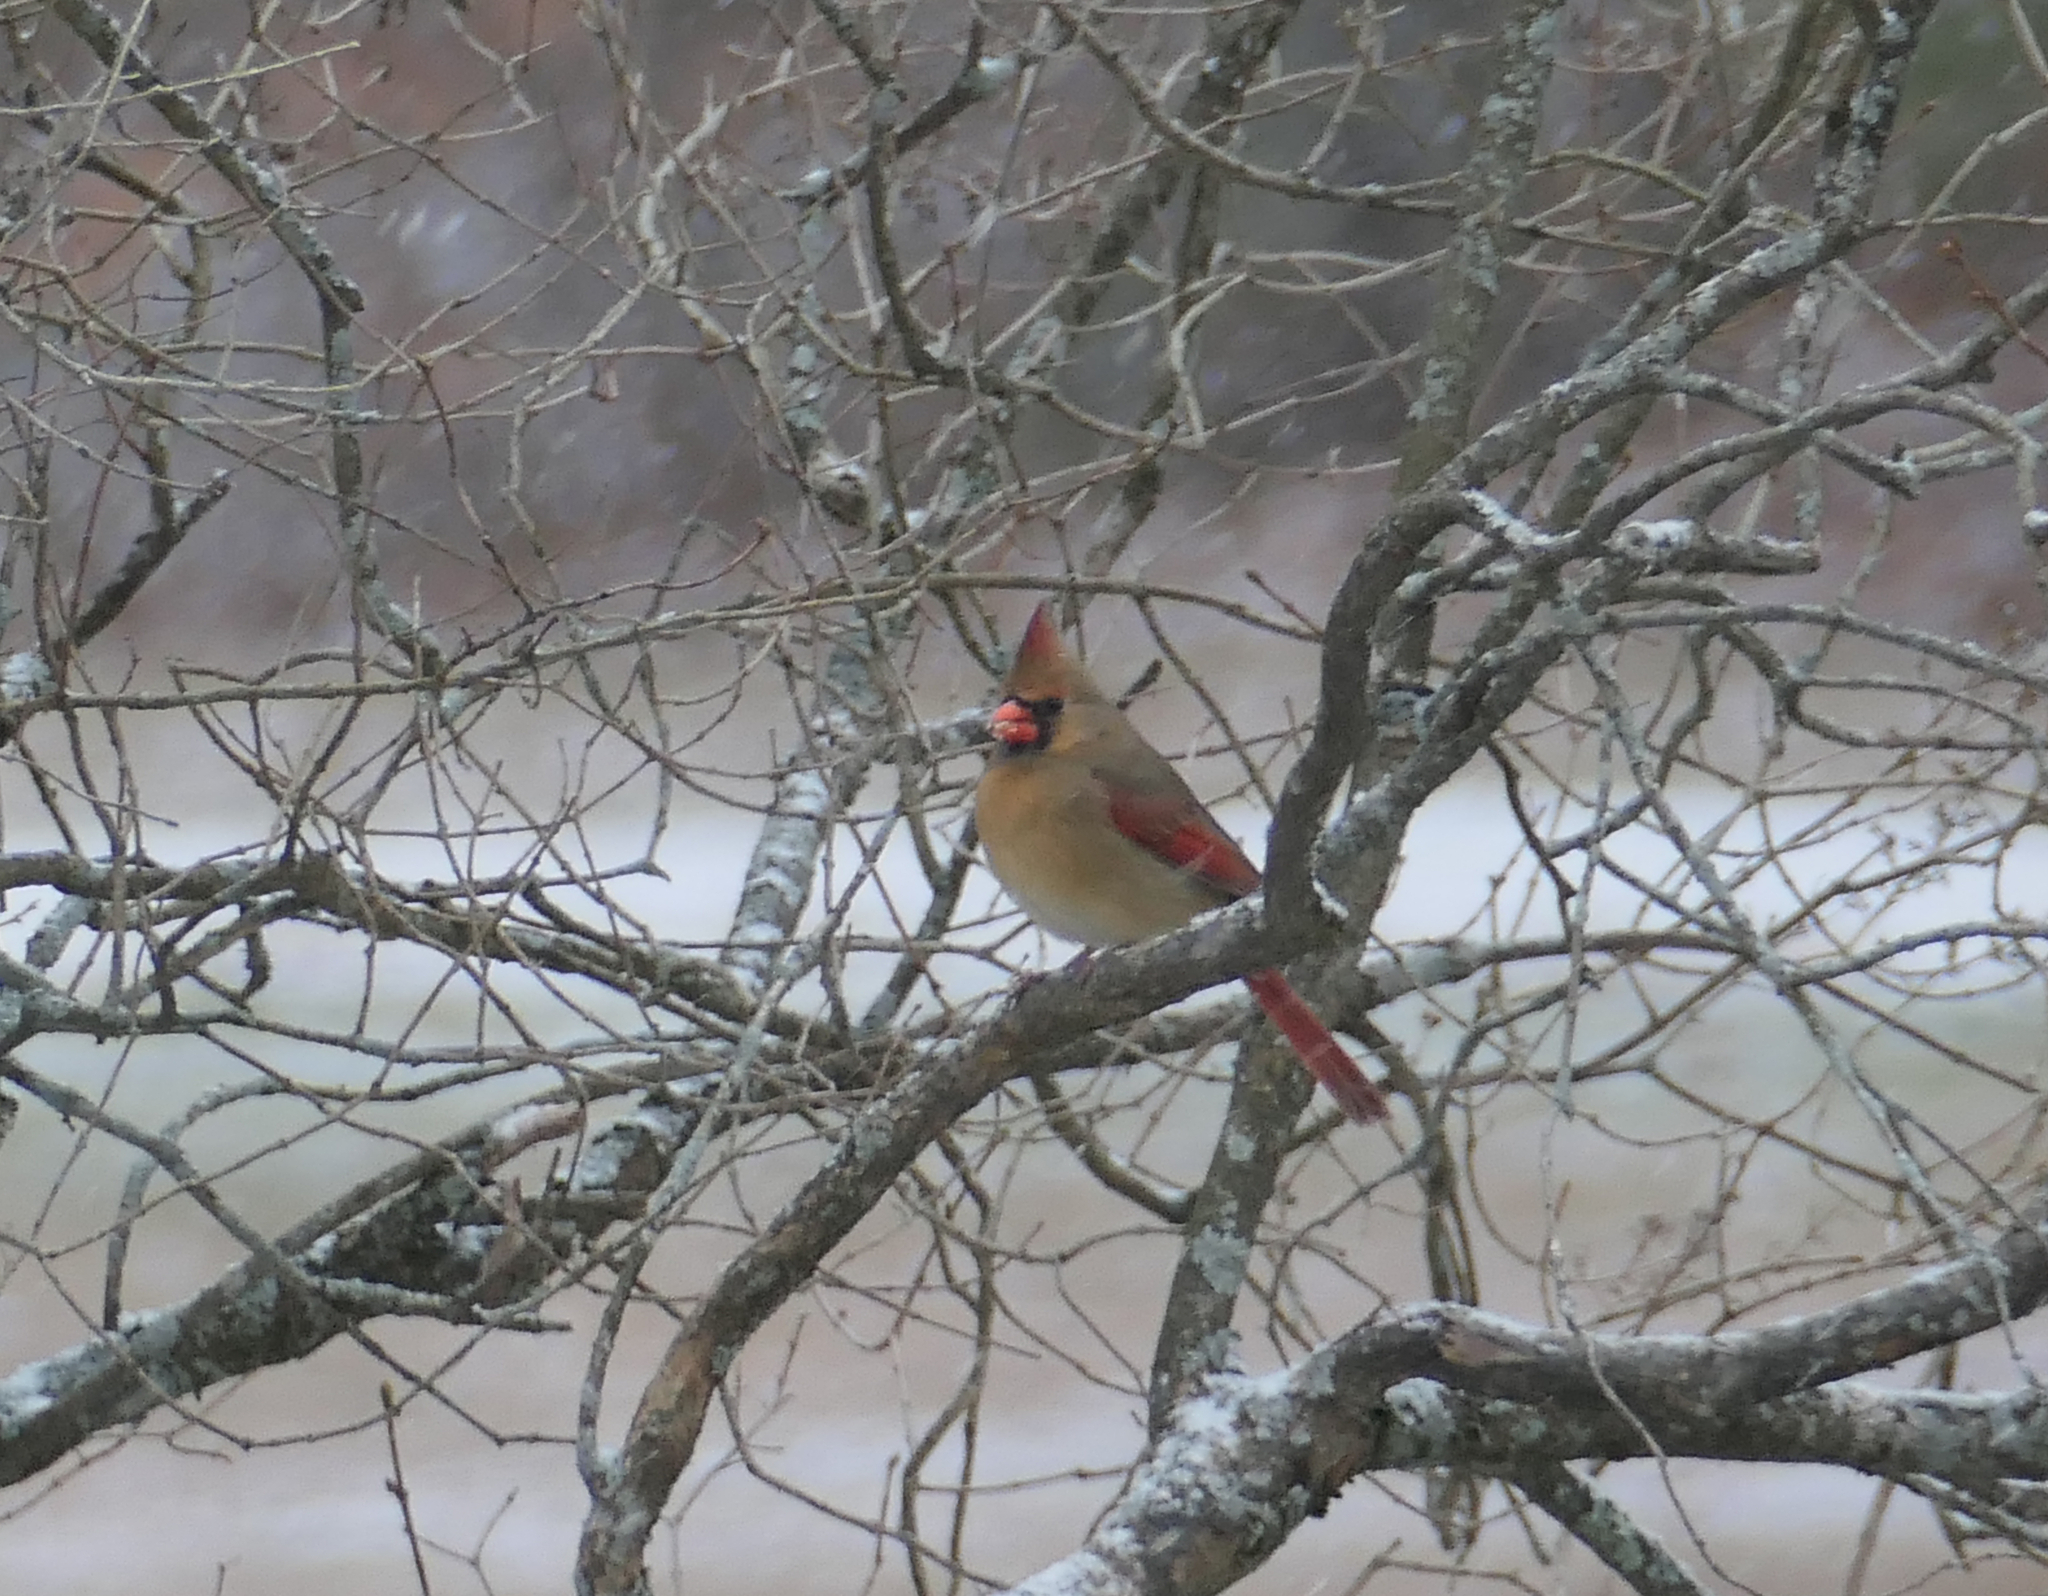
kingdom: Animalia
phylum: Chordata
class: Aves
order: Passeriformes
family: Cardinalidae
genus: Cardinalis
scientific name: Cardinalis cardinalis
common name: Northern cardinal
